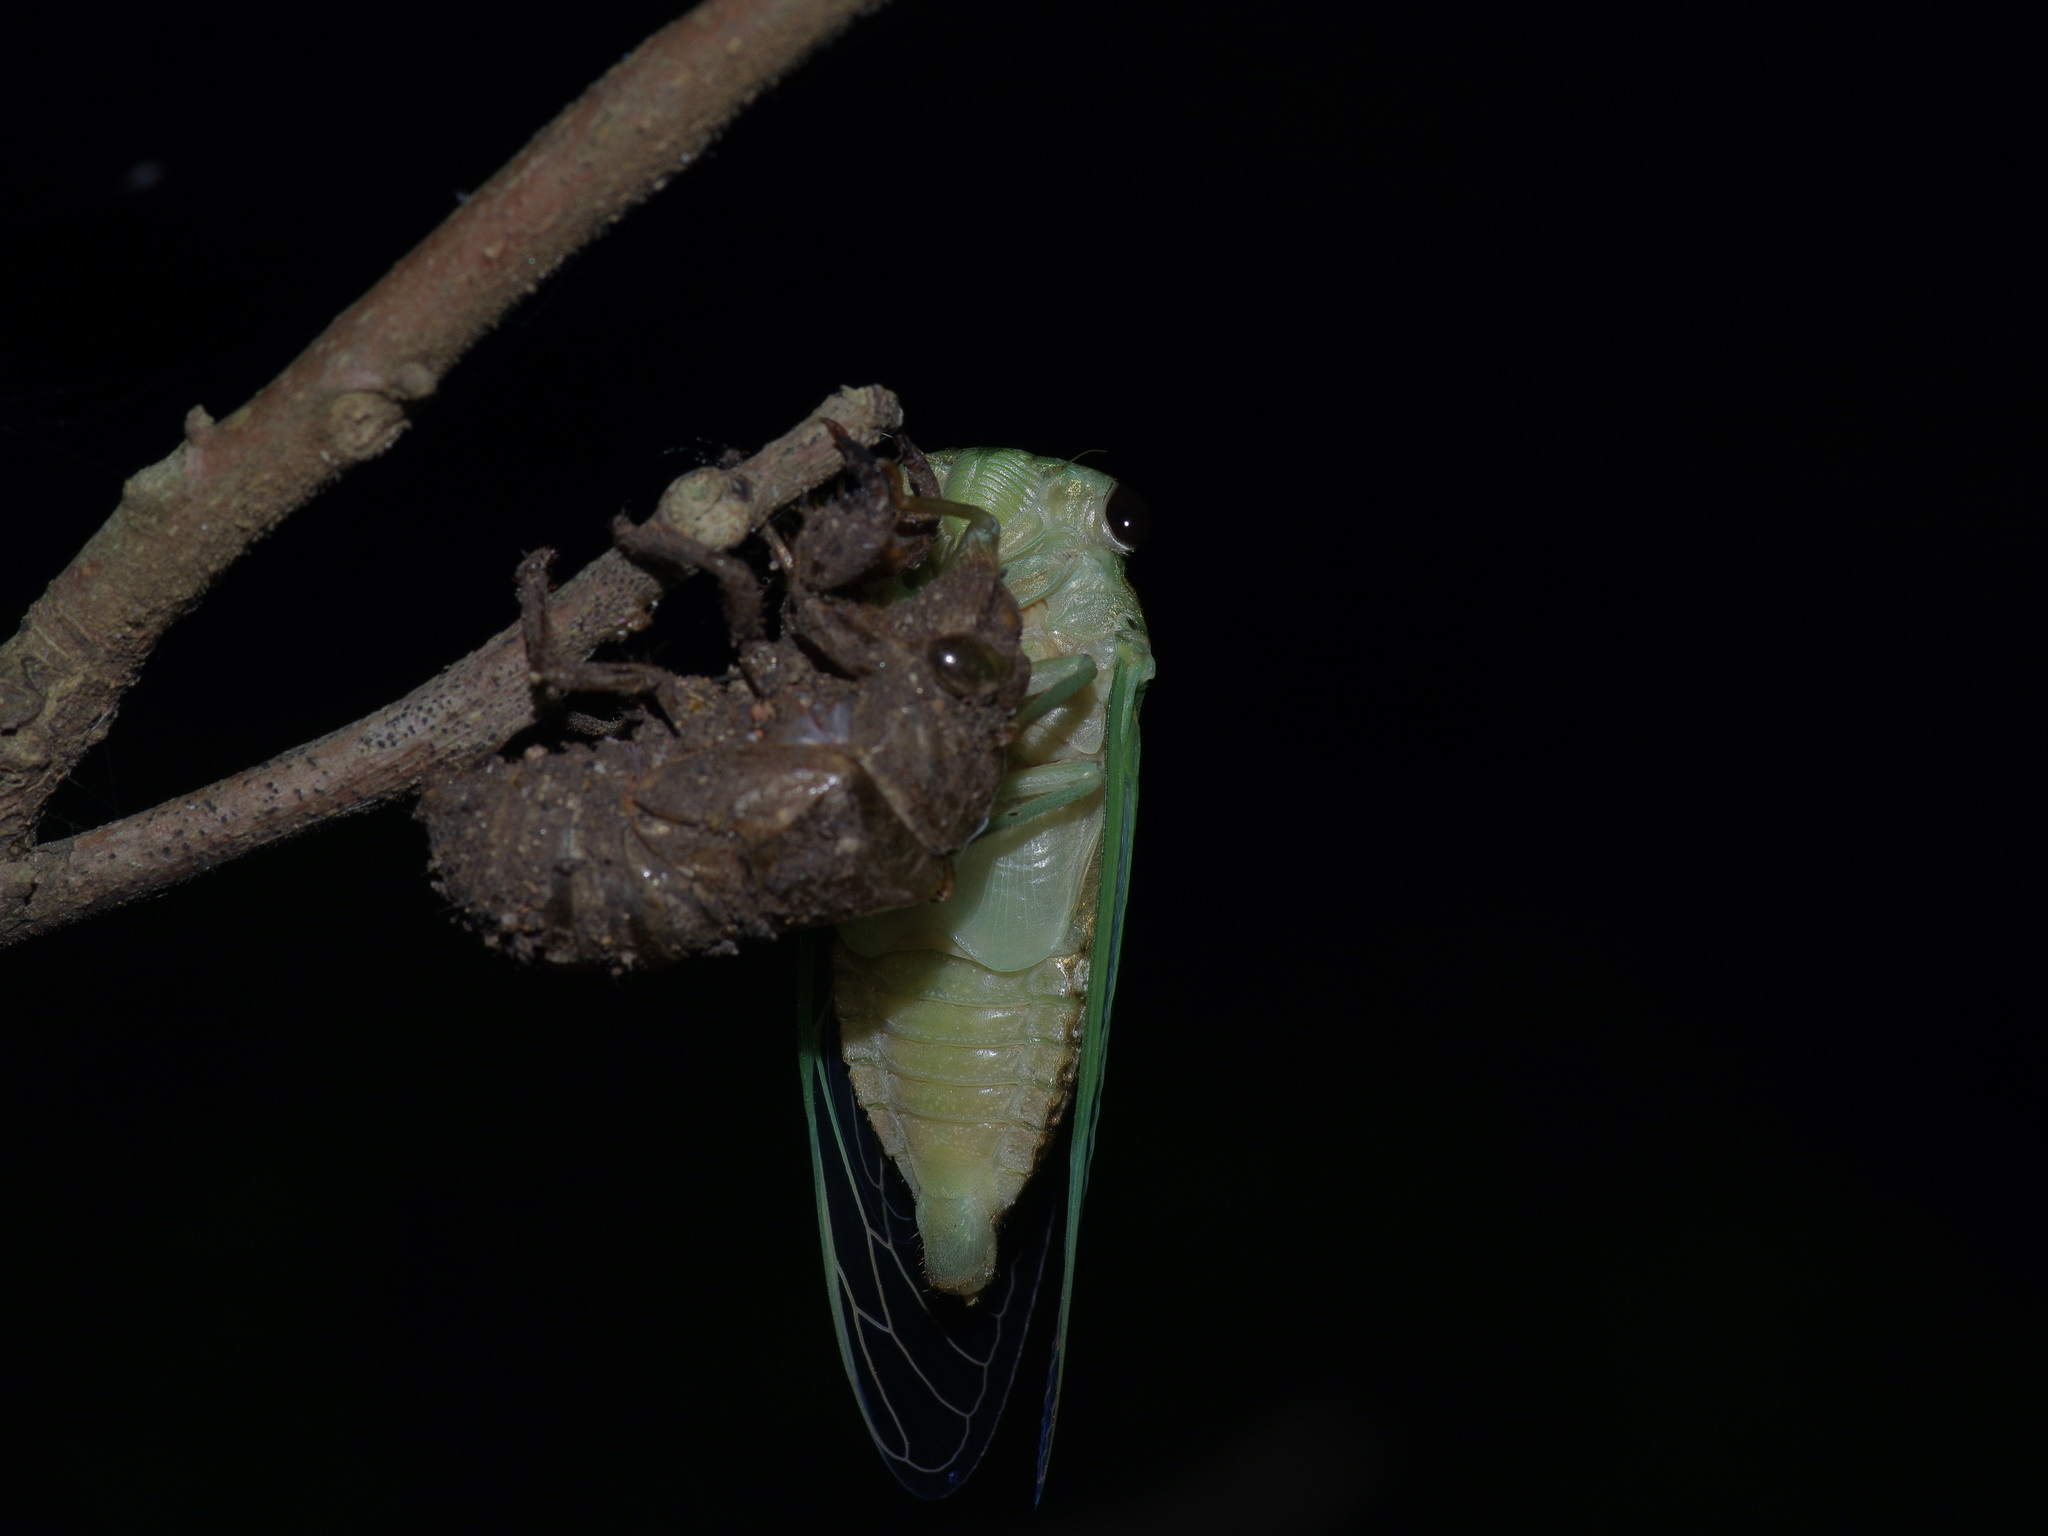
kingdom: Animalia
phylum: Arthropoda
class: Insecta
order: Hemiptera
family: Cicadidae
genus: Neotibicen
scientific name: Neotibicen superbus
